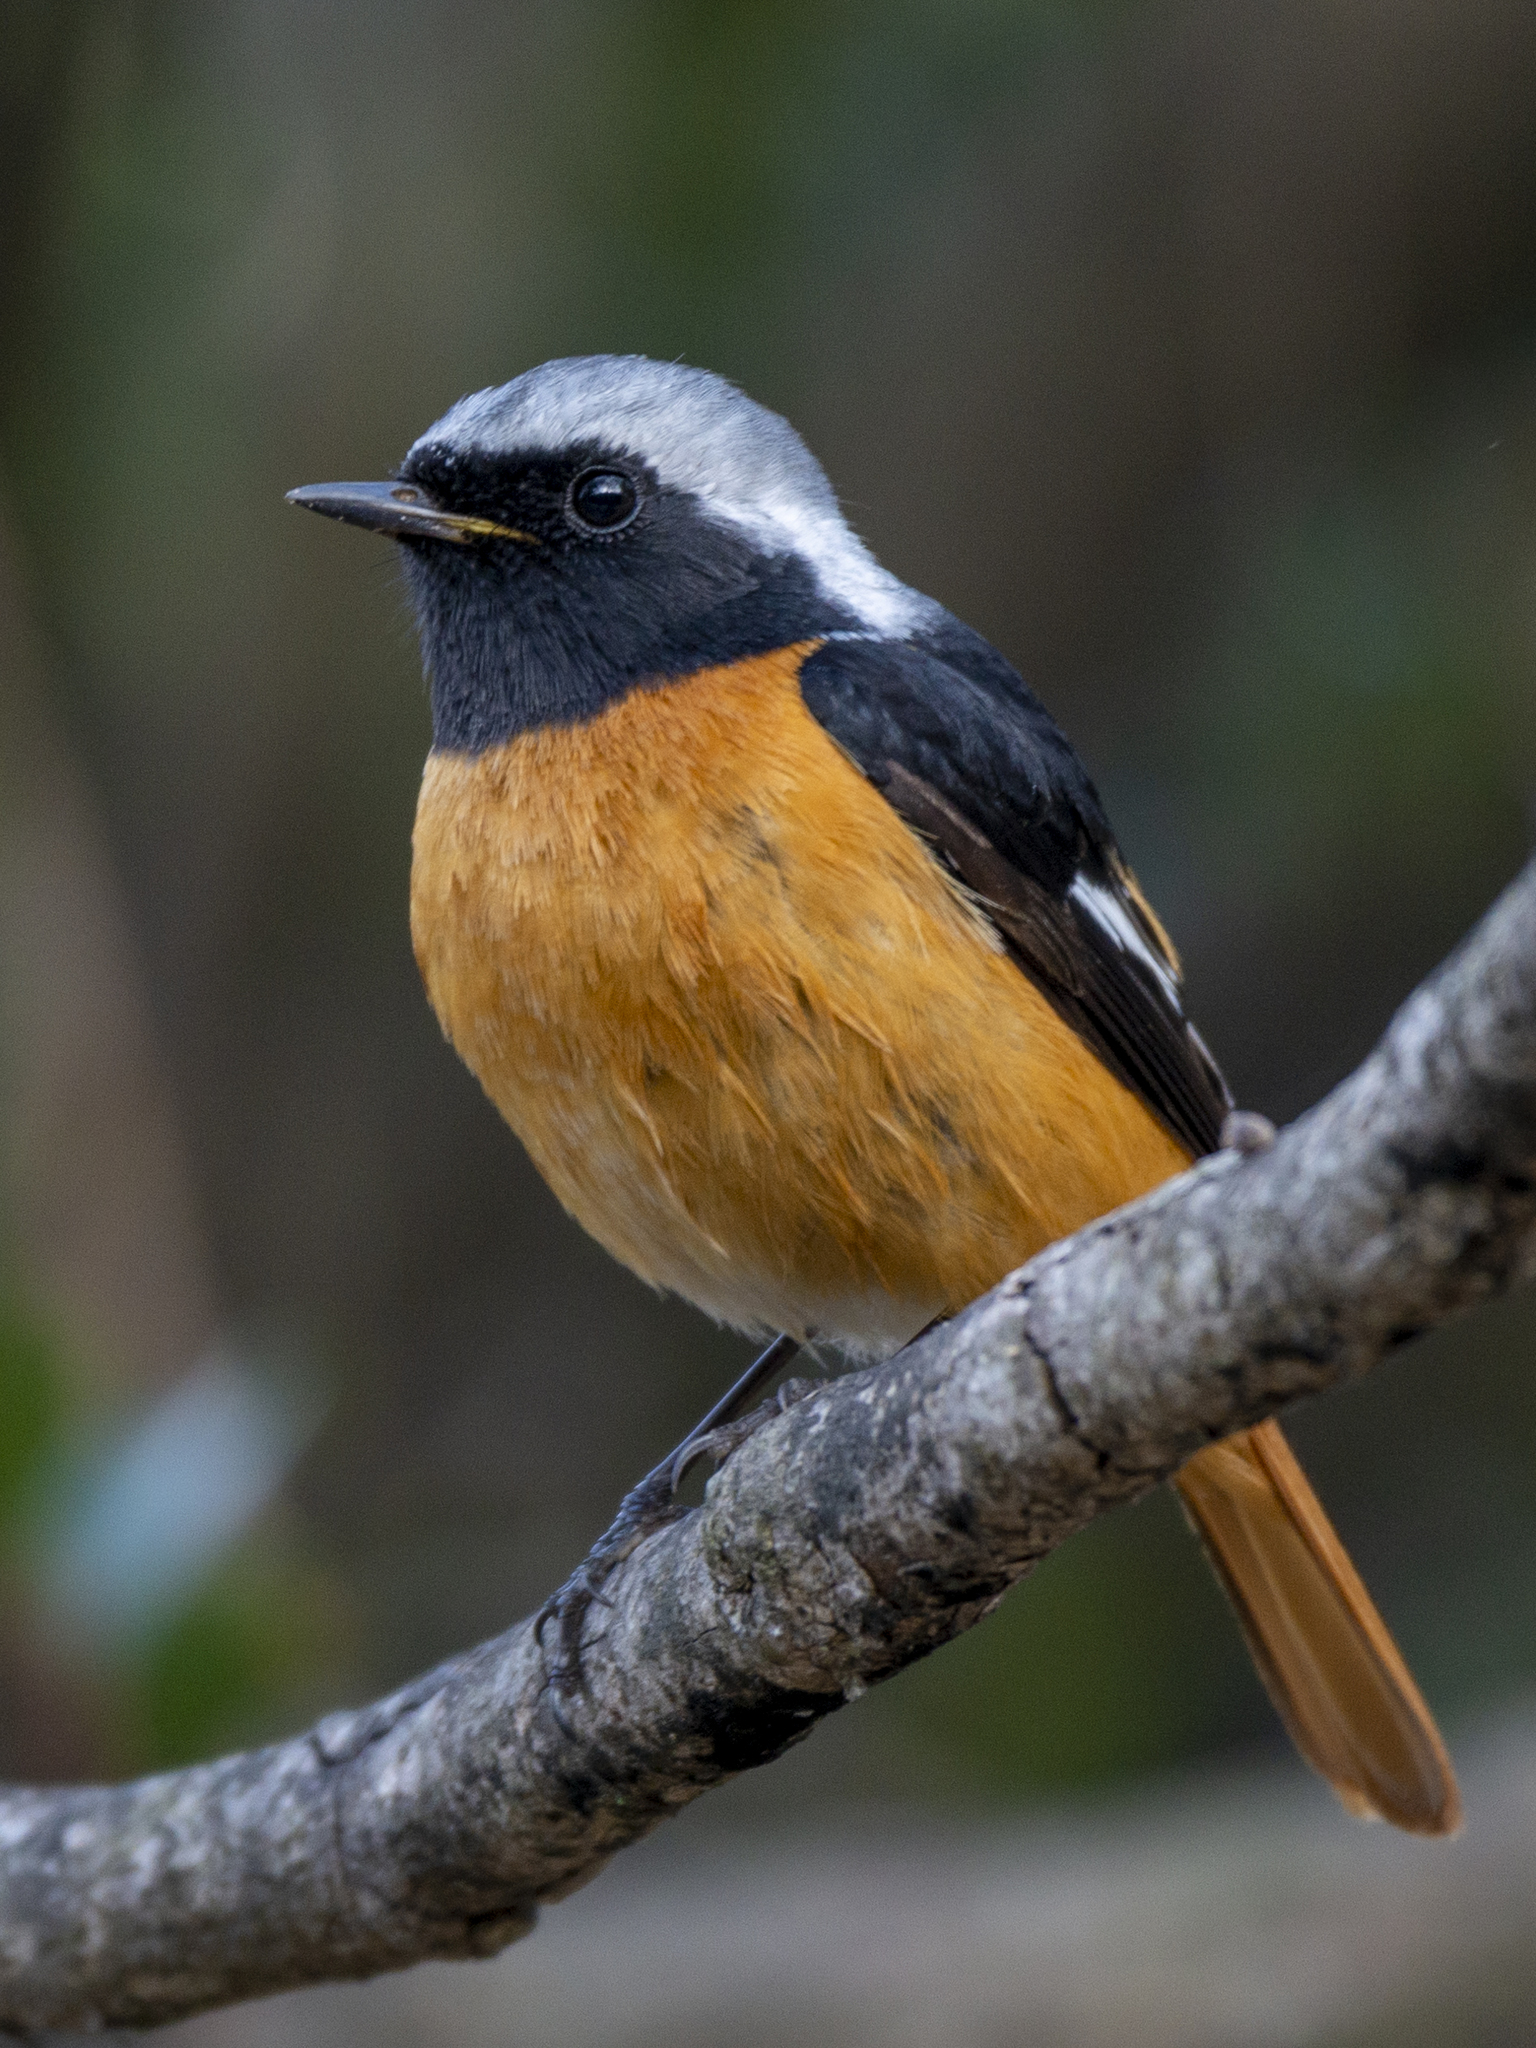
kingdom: Animalia
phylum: Chordata
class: Aves
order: Passeriformes
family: Muscicapidae
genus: Phoenicurus
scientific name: Phoenicurus auroreus
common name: Daurian redstart
